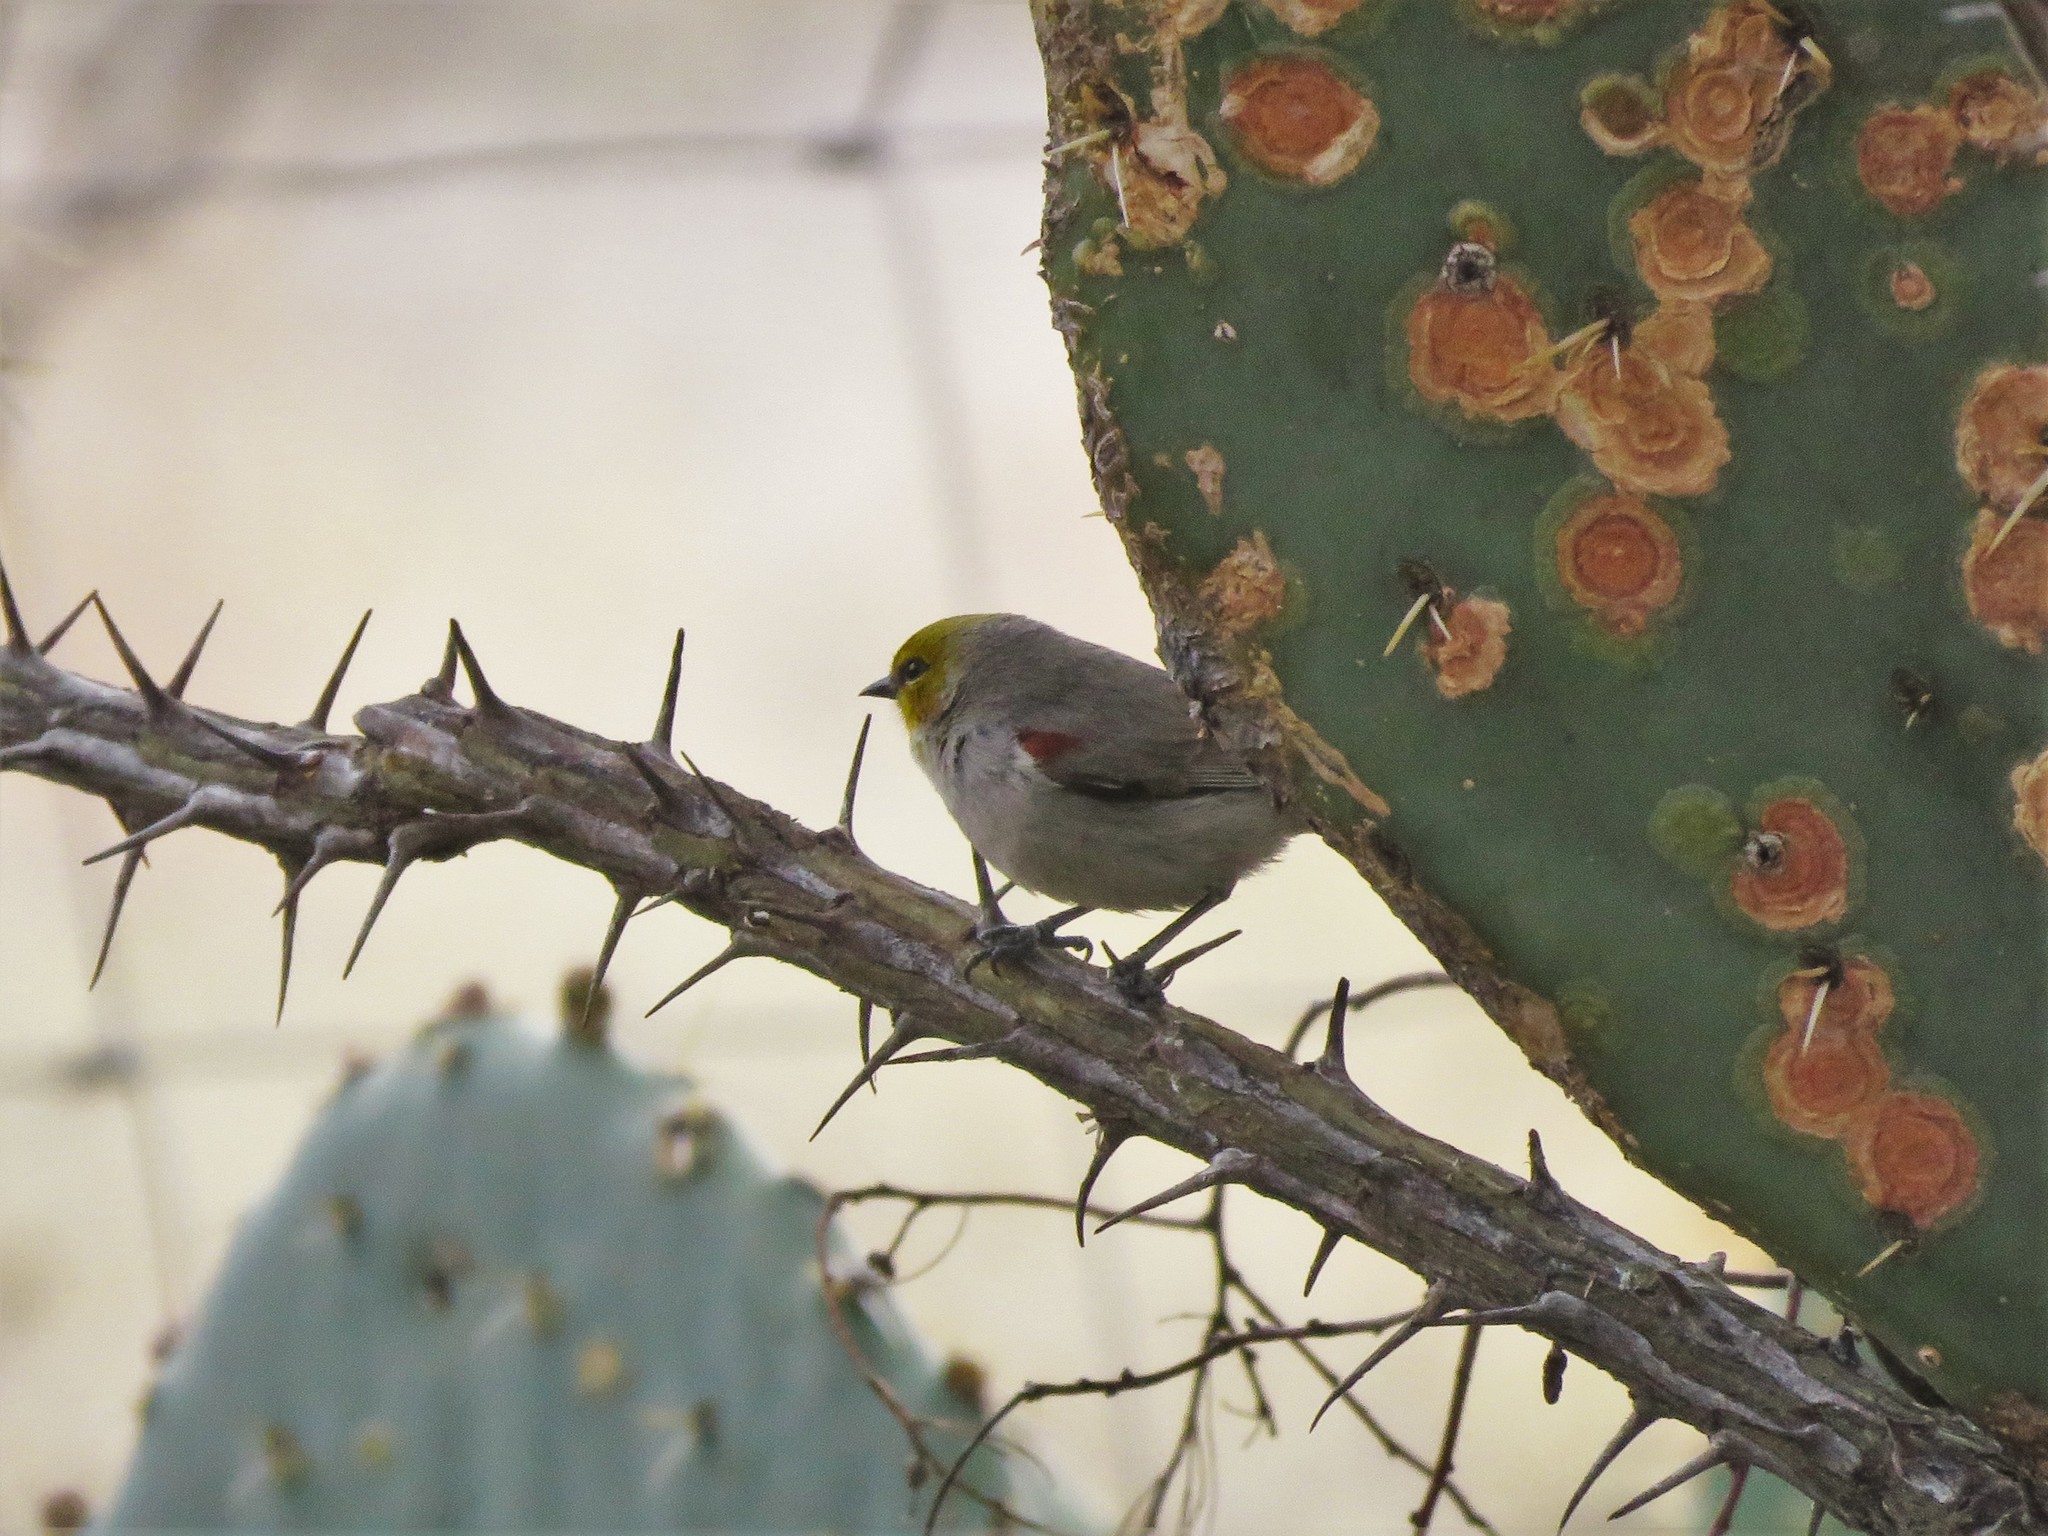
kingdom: Animalia
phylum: Chordata
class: Aves
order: Passeriformes
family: Remizidae
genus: Auriparus
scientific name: Auriparus flaviceps
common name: Verdin
